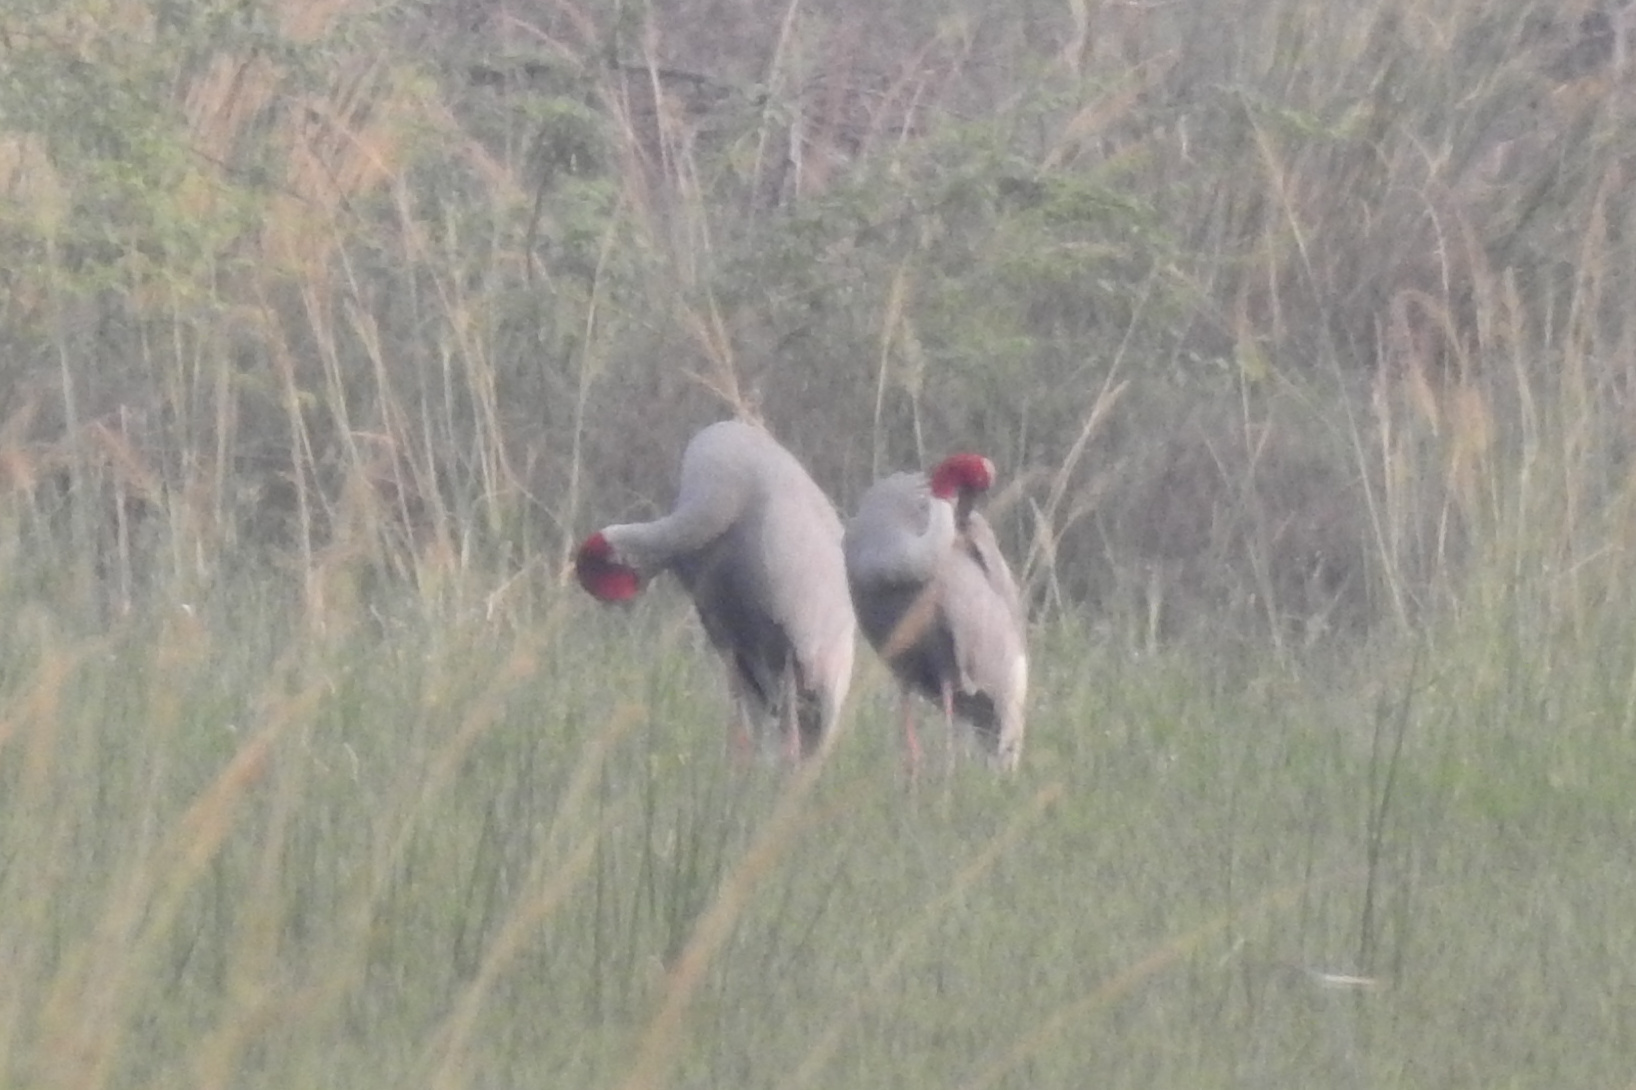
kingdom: Animalia
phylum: Chordata
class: Aves
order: Gruiformes
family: Gruidae
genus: Grus
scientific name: Grus antigone
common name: Sarus crane
